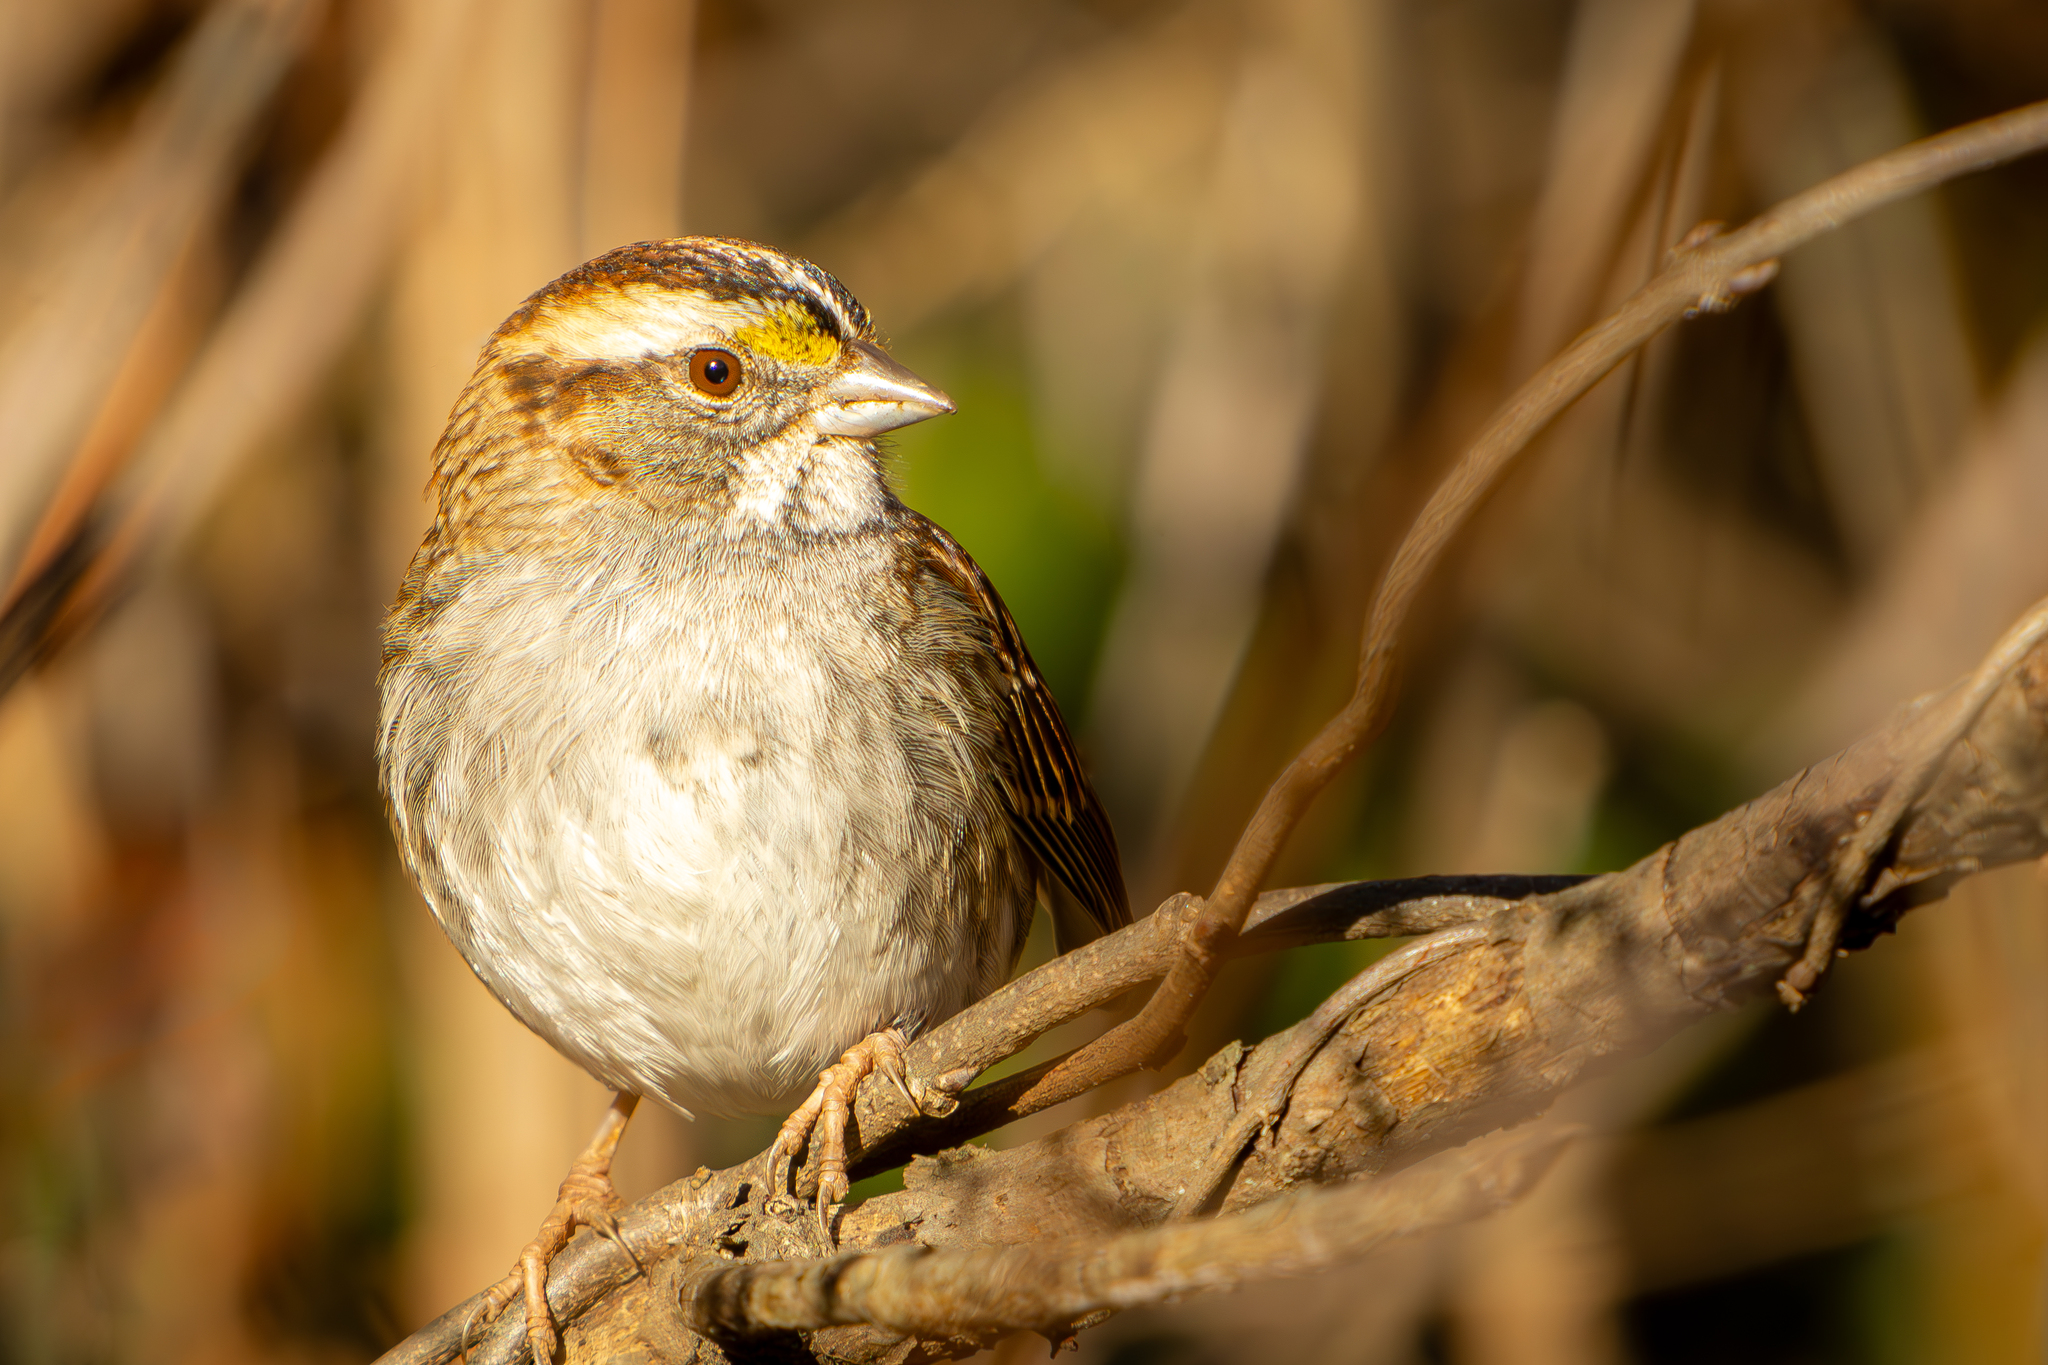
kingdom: Animalia
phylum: Chordata
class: Aves
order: Passeriformes
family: Passerellidae
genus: Zonotrichia
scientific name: Zonotrichia albicollis
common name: White-throated sparrow
